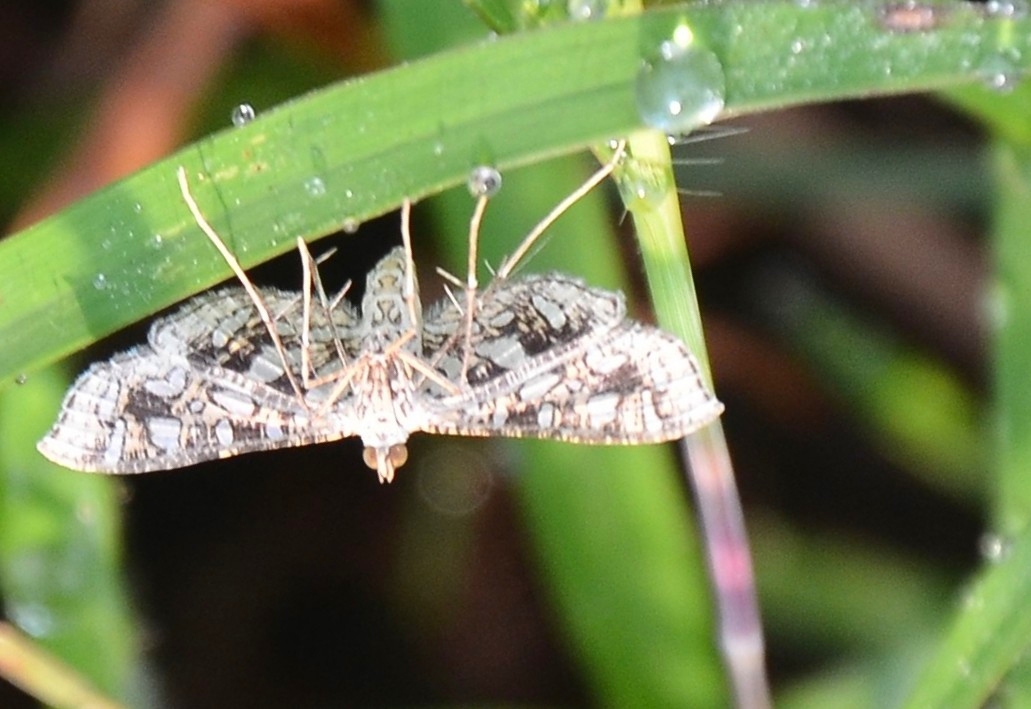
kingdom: Animalia
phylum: Arthropoda
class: Insecta
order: Lepidoptera
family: Crambidae
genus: Nausinoe
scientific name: Nausinoe geometralis
